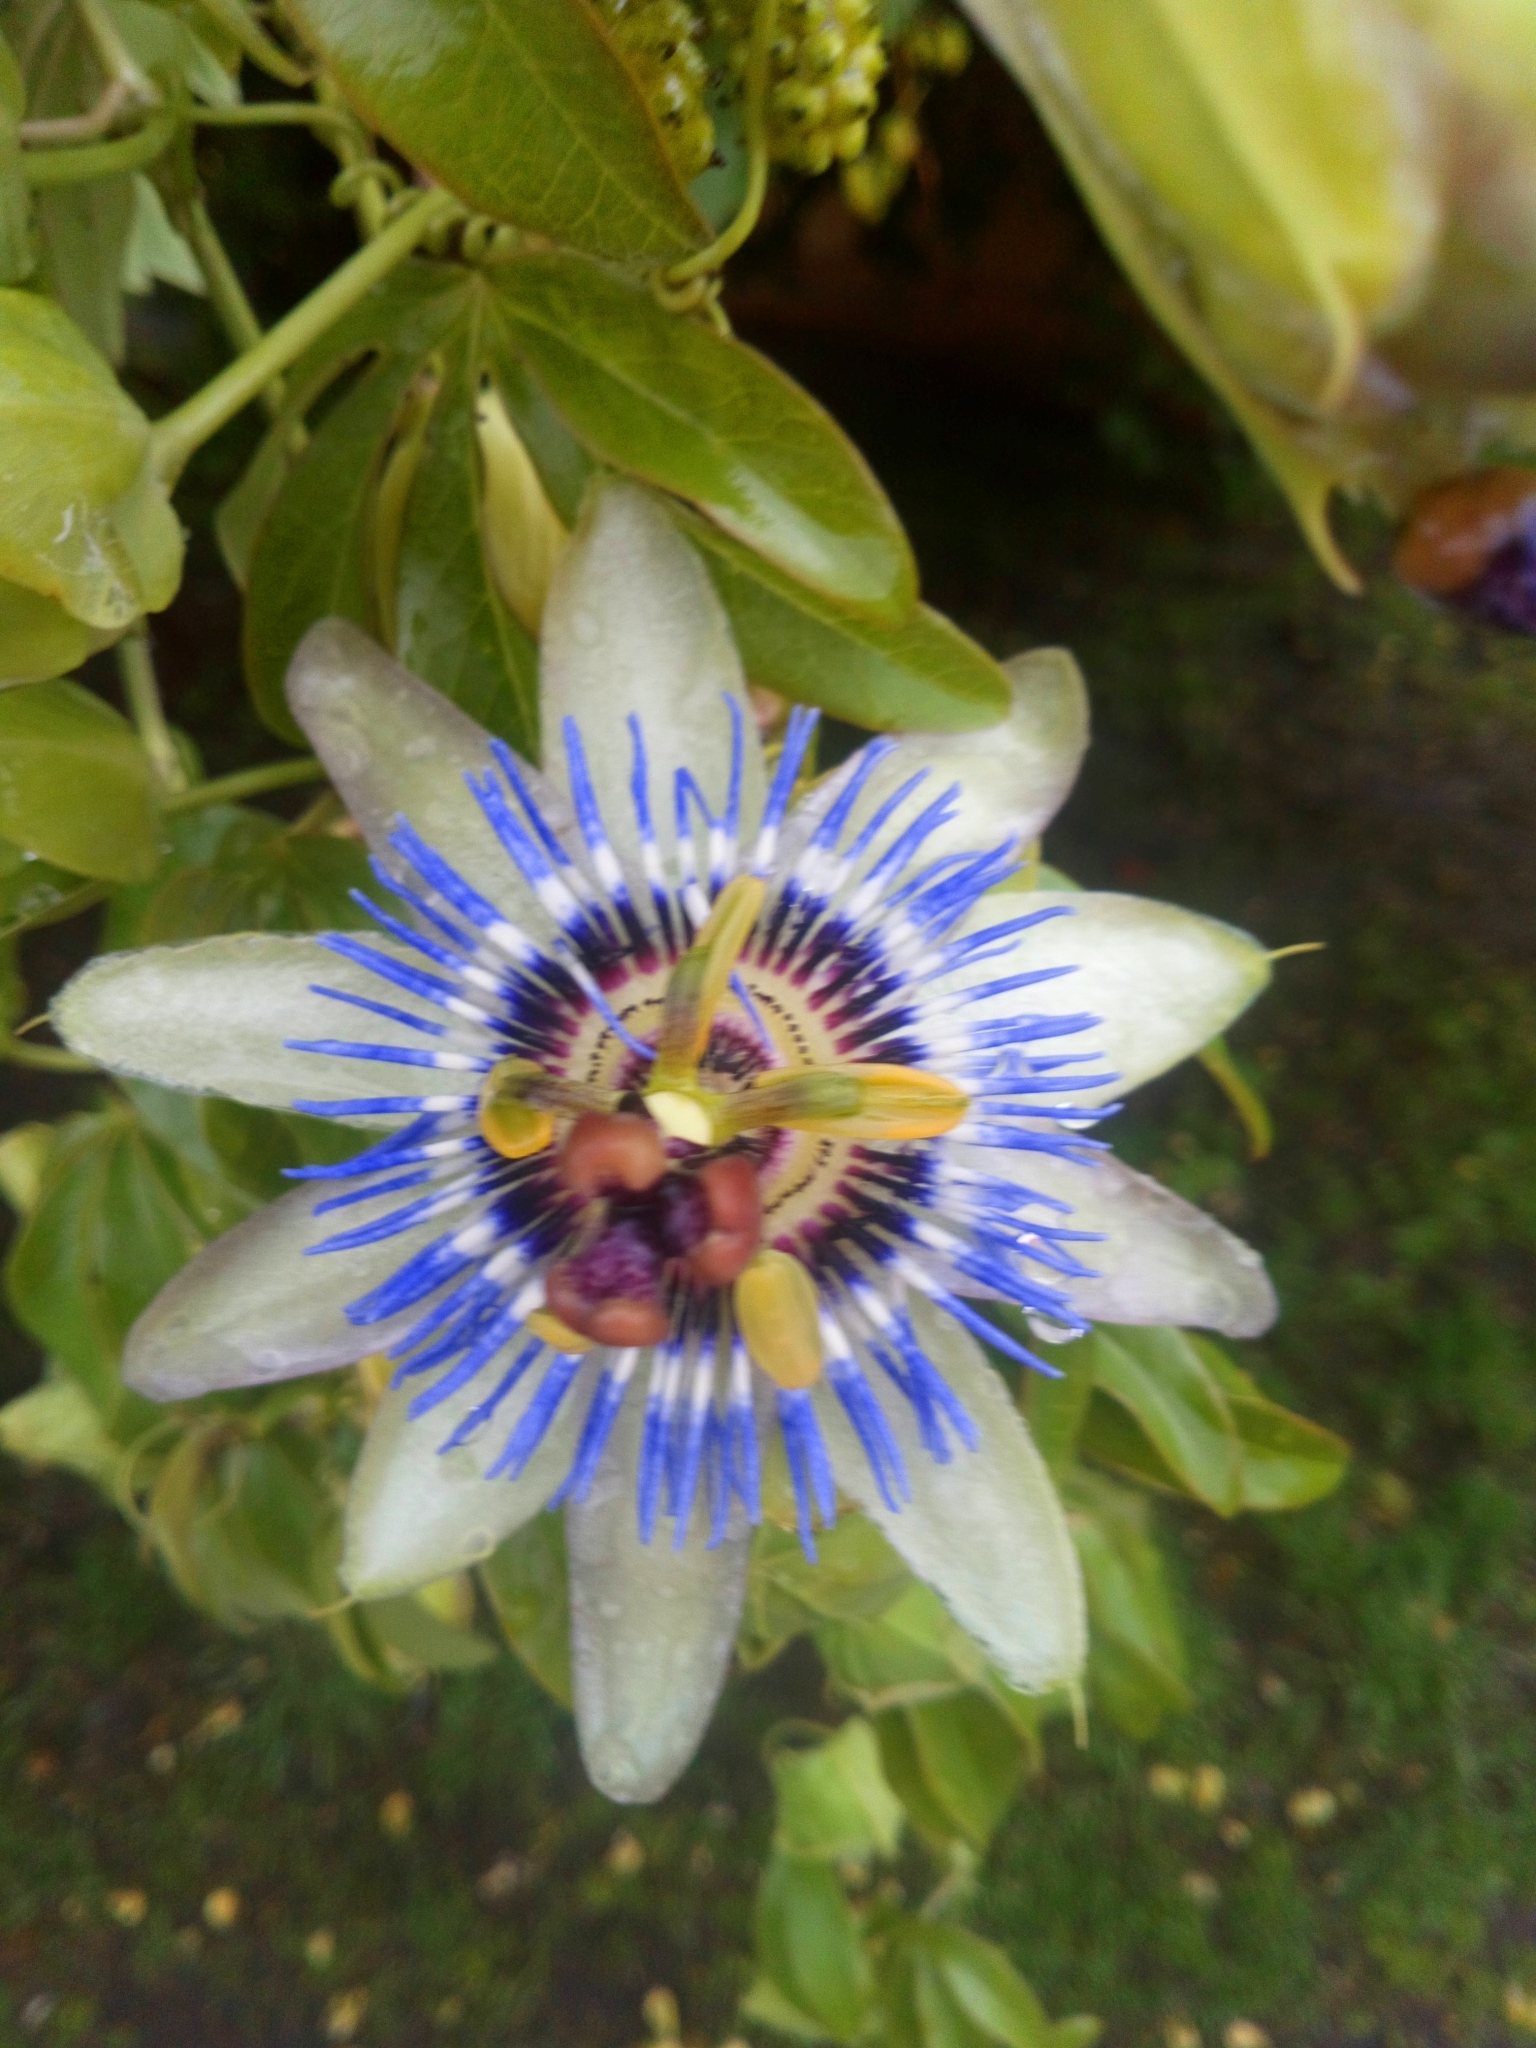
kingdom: Plantae
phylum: Tracheophyta
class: Magnoliopsida
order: Malpighiales
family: Passifloraceae
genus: Passiflora
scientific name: Passiflora caerulea
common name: Blue passionflower
